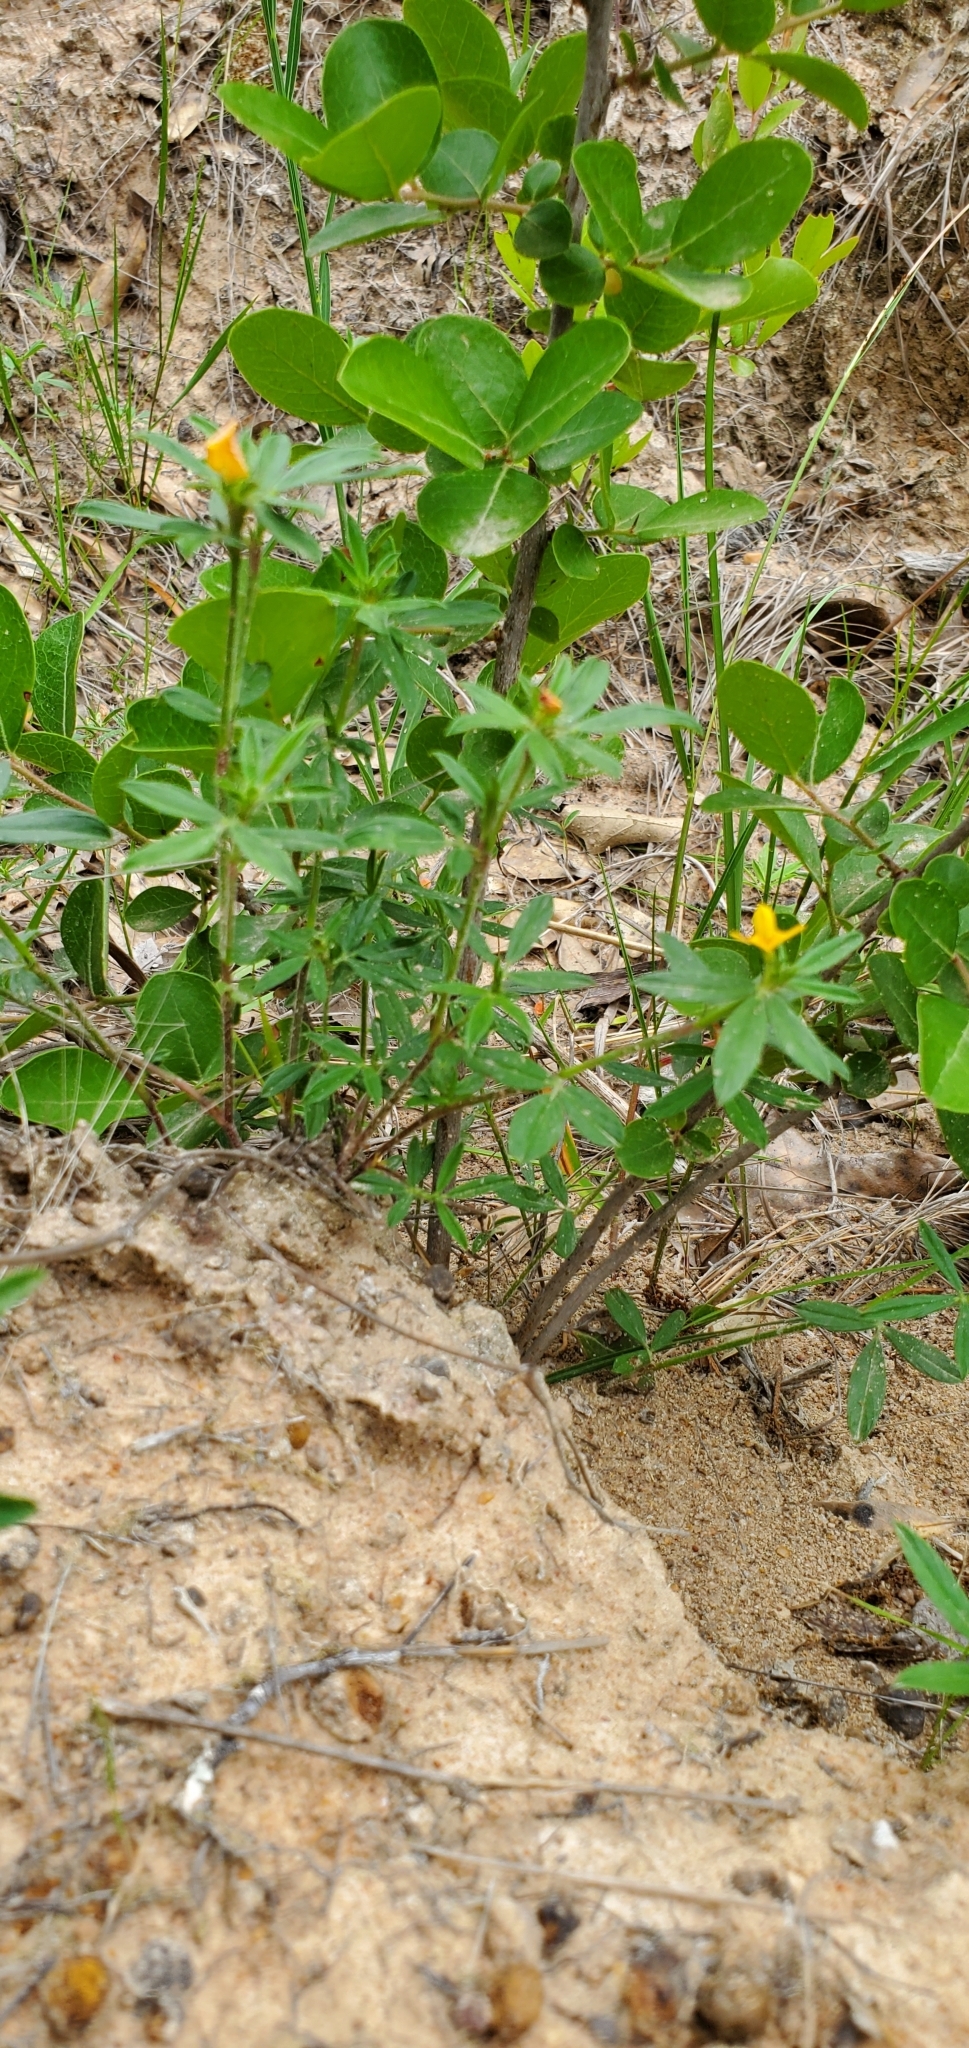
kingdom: Plantae
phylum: Tracheophyta
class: Magnoliopsida
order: Fabales
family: Fabaceae
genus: Stylosanthes
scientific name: Stylosanthes biflora
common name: Two-flower pencil-flower
